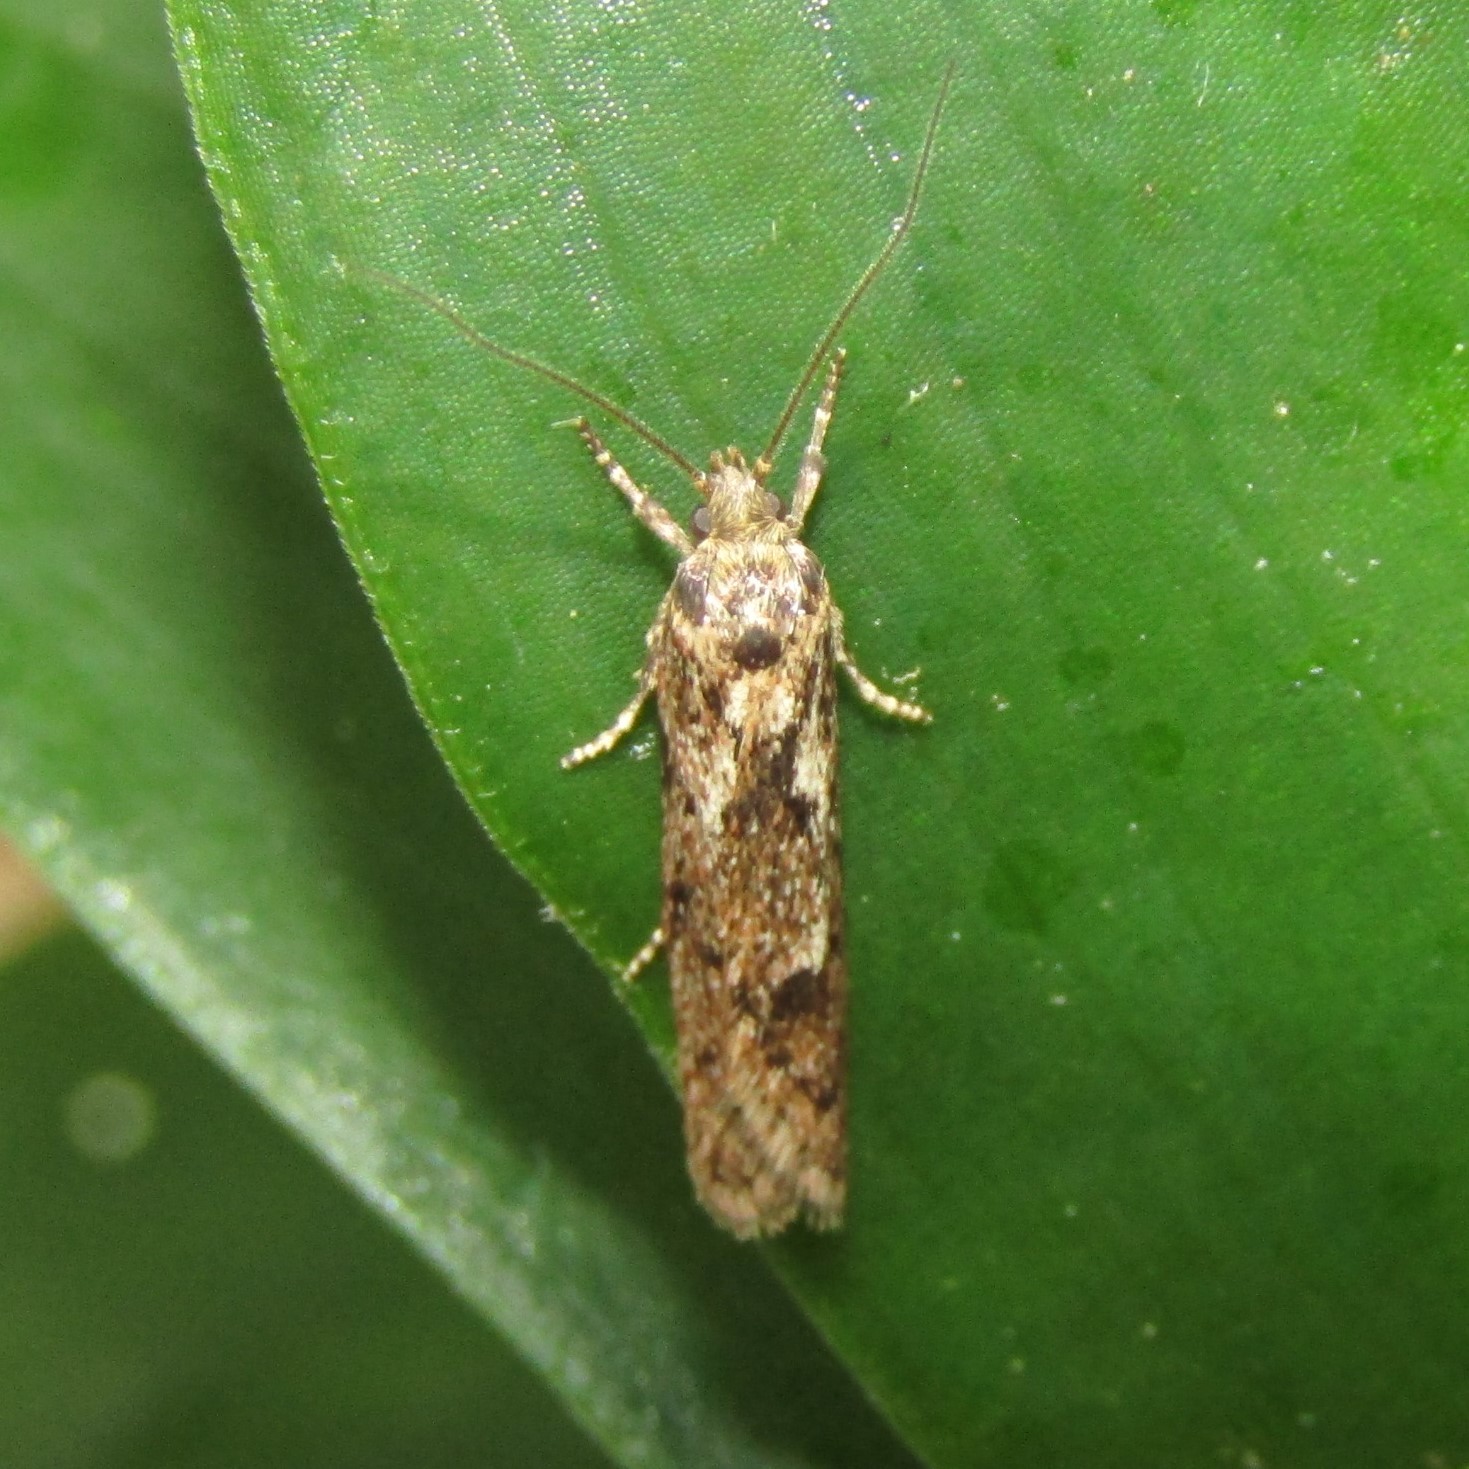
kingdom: Animalia
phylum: Arthropoda
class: Insecta
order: Lepidoptera
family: Oecophoridae
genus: Chersadaula
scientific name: Chersadaula ochrogastra
